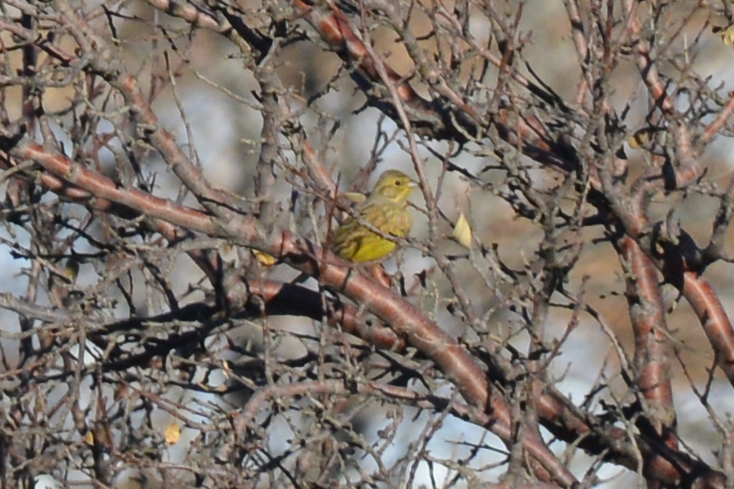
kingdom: Animalia
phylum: Chordata
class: Aves
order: Passeriformes
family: Emberizidae
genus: Emberiza
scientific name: Emberiza citrinella
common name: Yellowhammer
